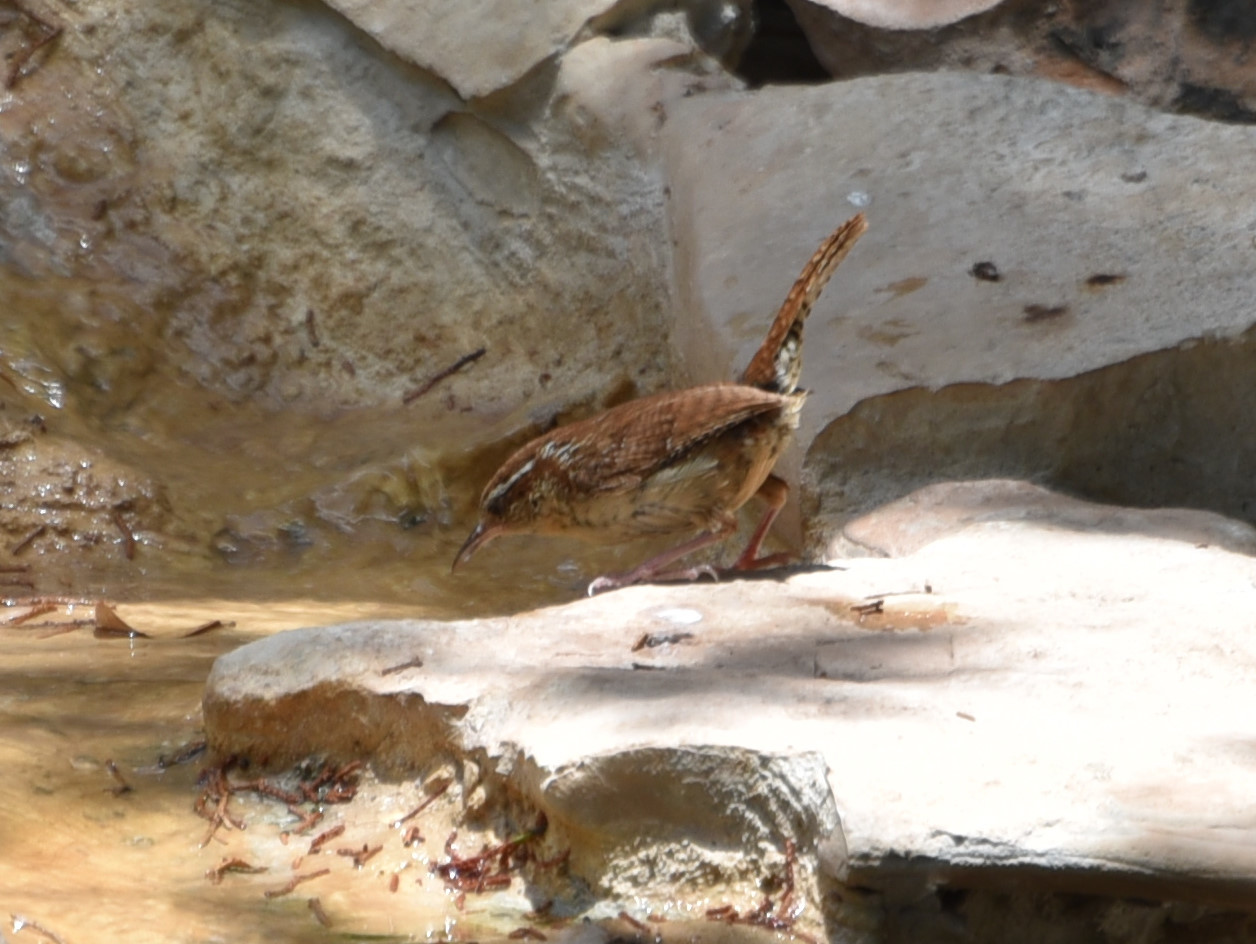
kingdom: Animalia
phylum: Chordata
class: Aves
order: Passeriformes
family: Troglodytidae
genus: Thryothorus
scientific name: Thryothorus ludovicianus
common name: Carolina wren
